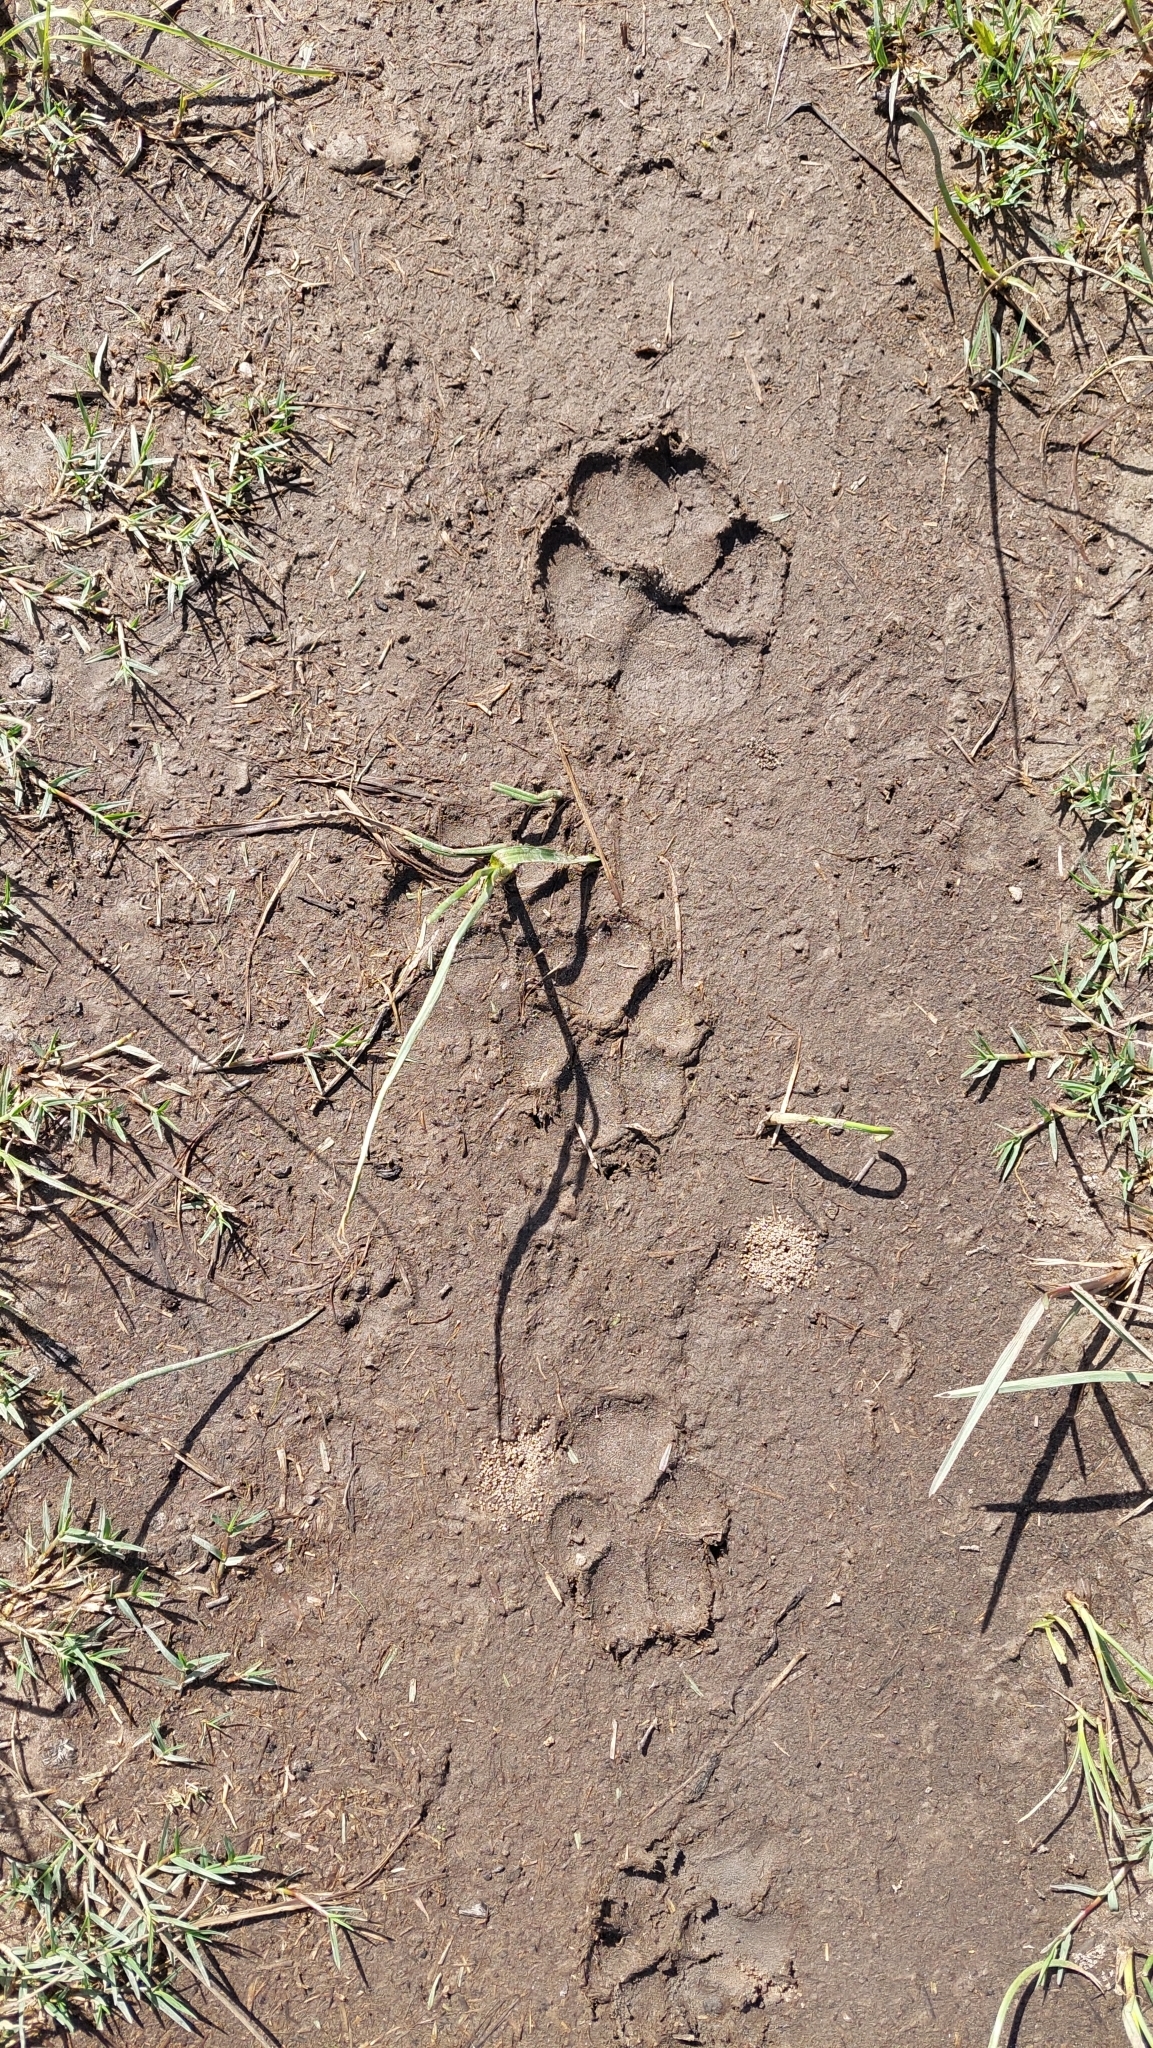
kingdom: Animalia
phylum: Chordata
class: Mammalia
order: Carnivora
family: Canidae
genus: Canis
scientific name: Canis lupus
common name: Gray wolf
